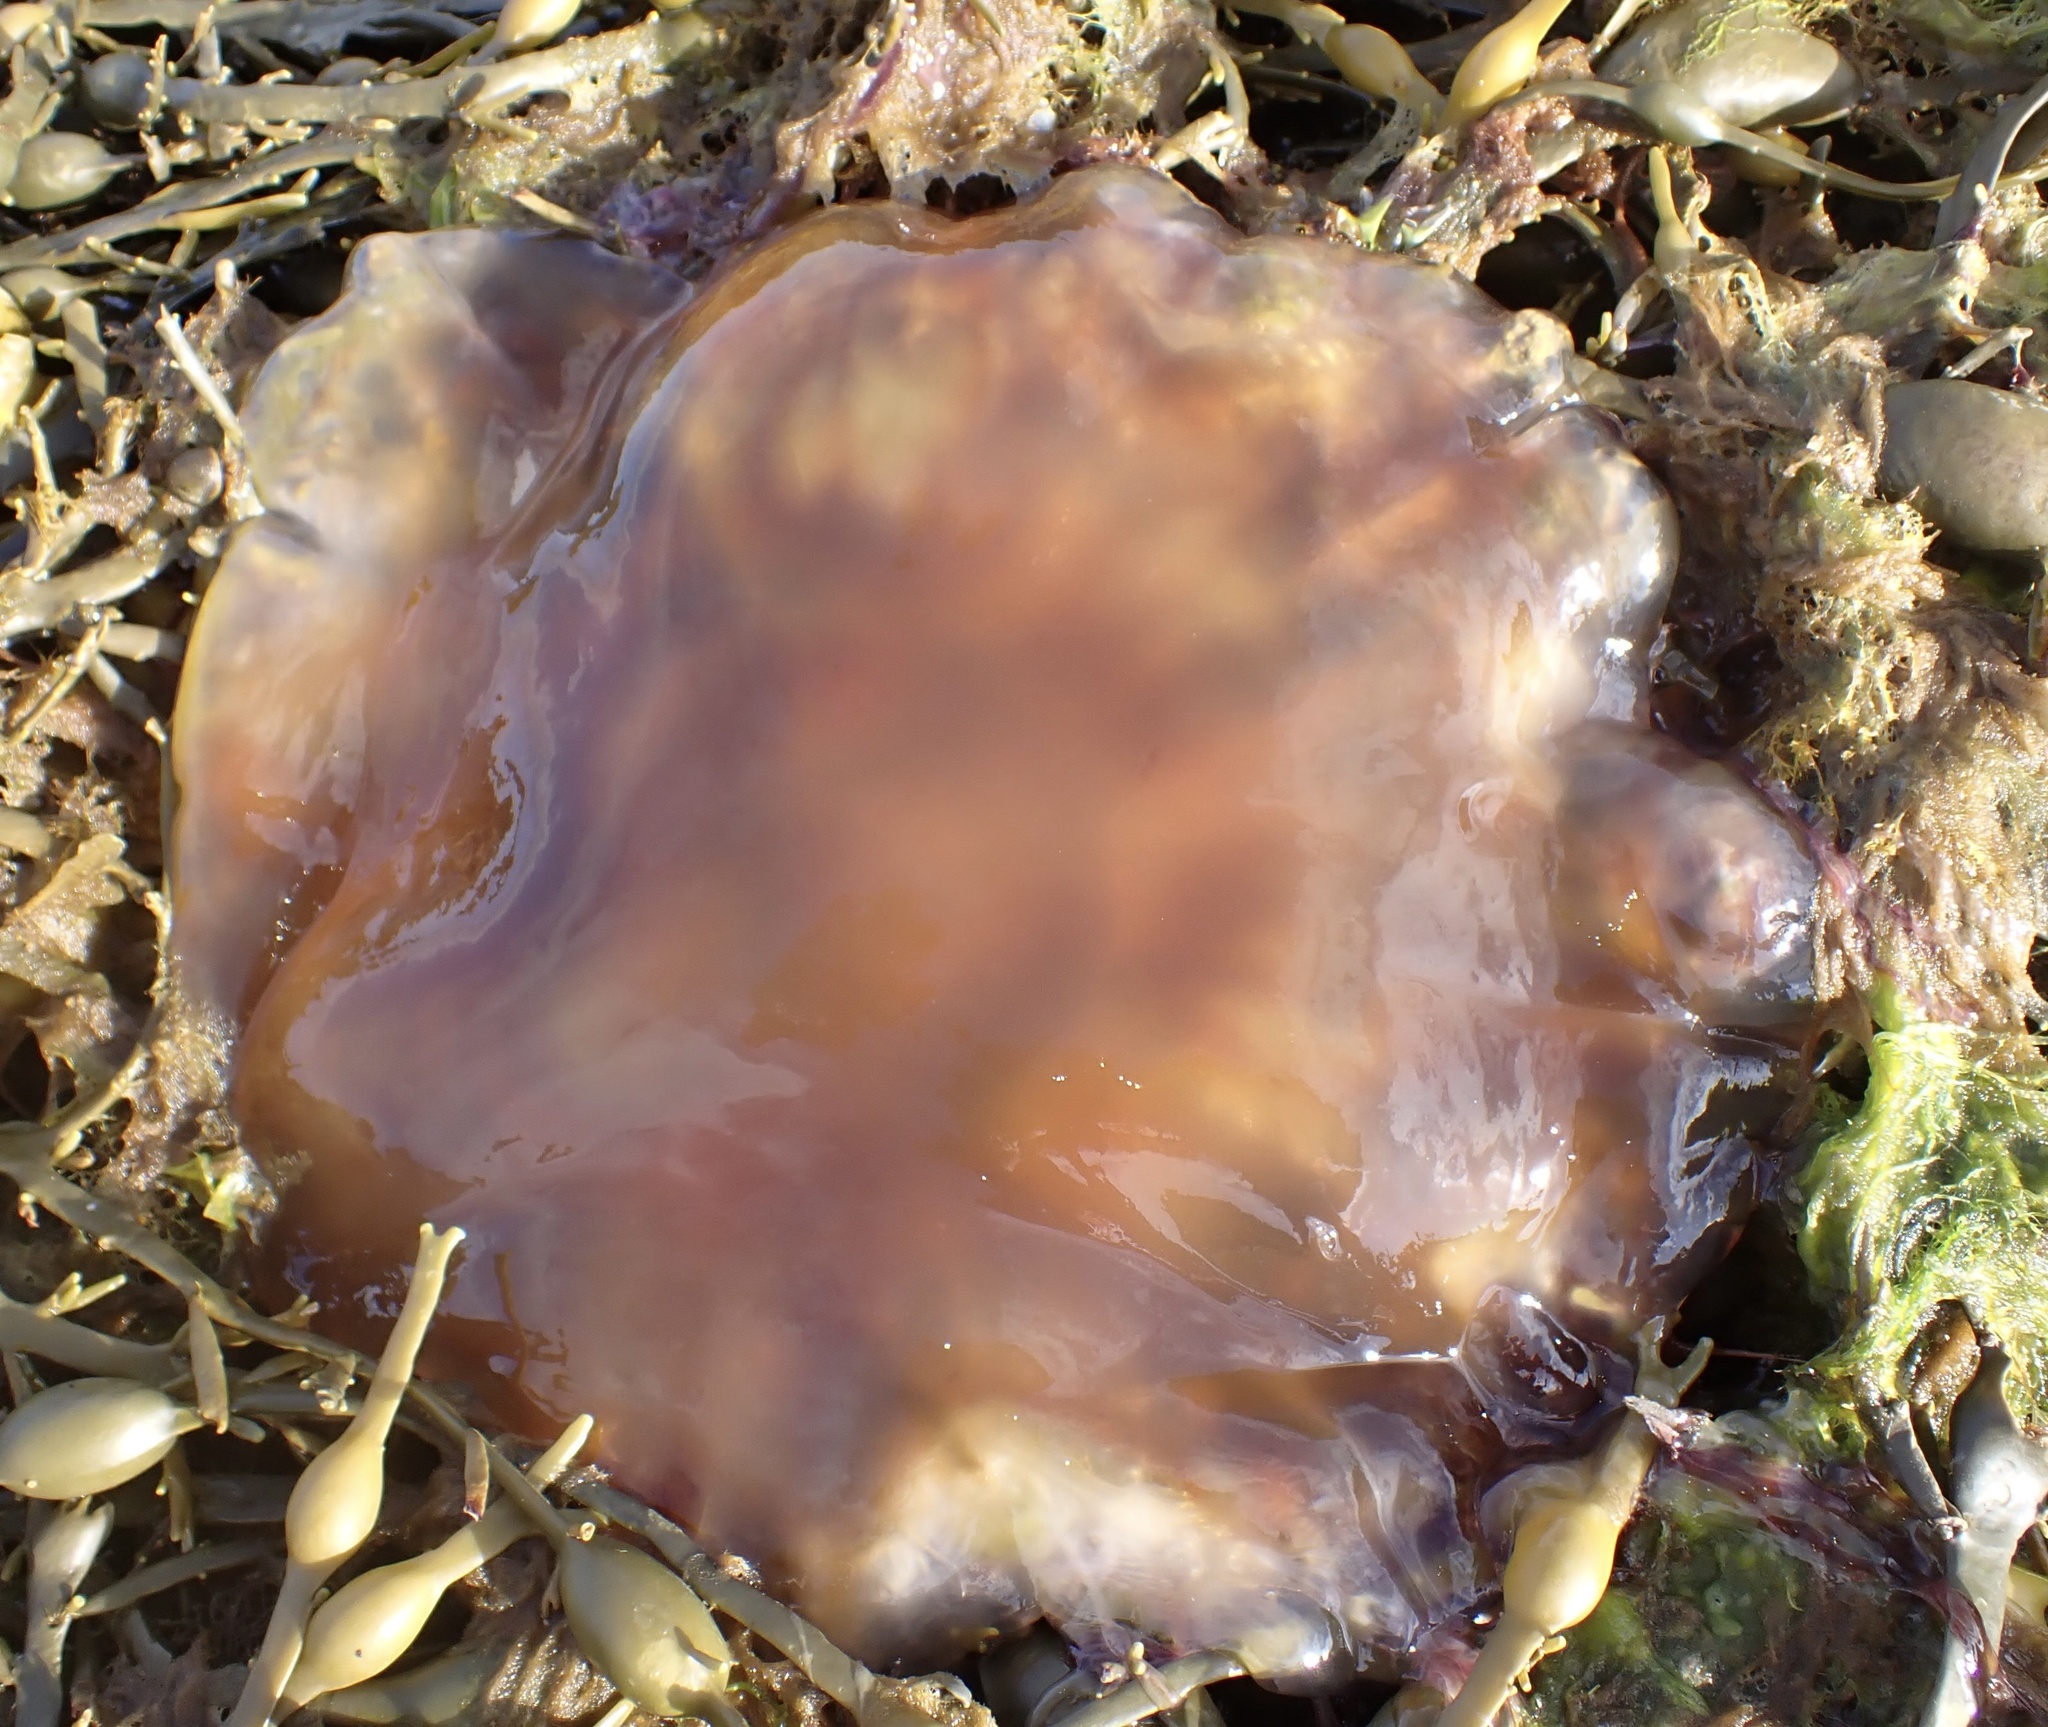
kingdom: Animalia
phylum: Cnidaria
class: Scyphozoa
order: Semaeostomeae
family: Cyaneidae
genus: Cyanea
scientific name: Cyanea capillata
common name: Lion's mane jellyfish
